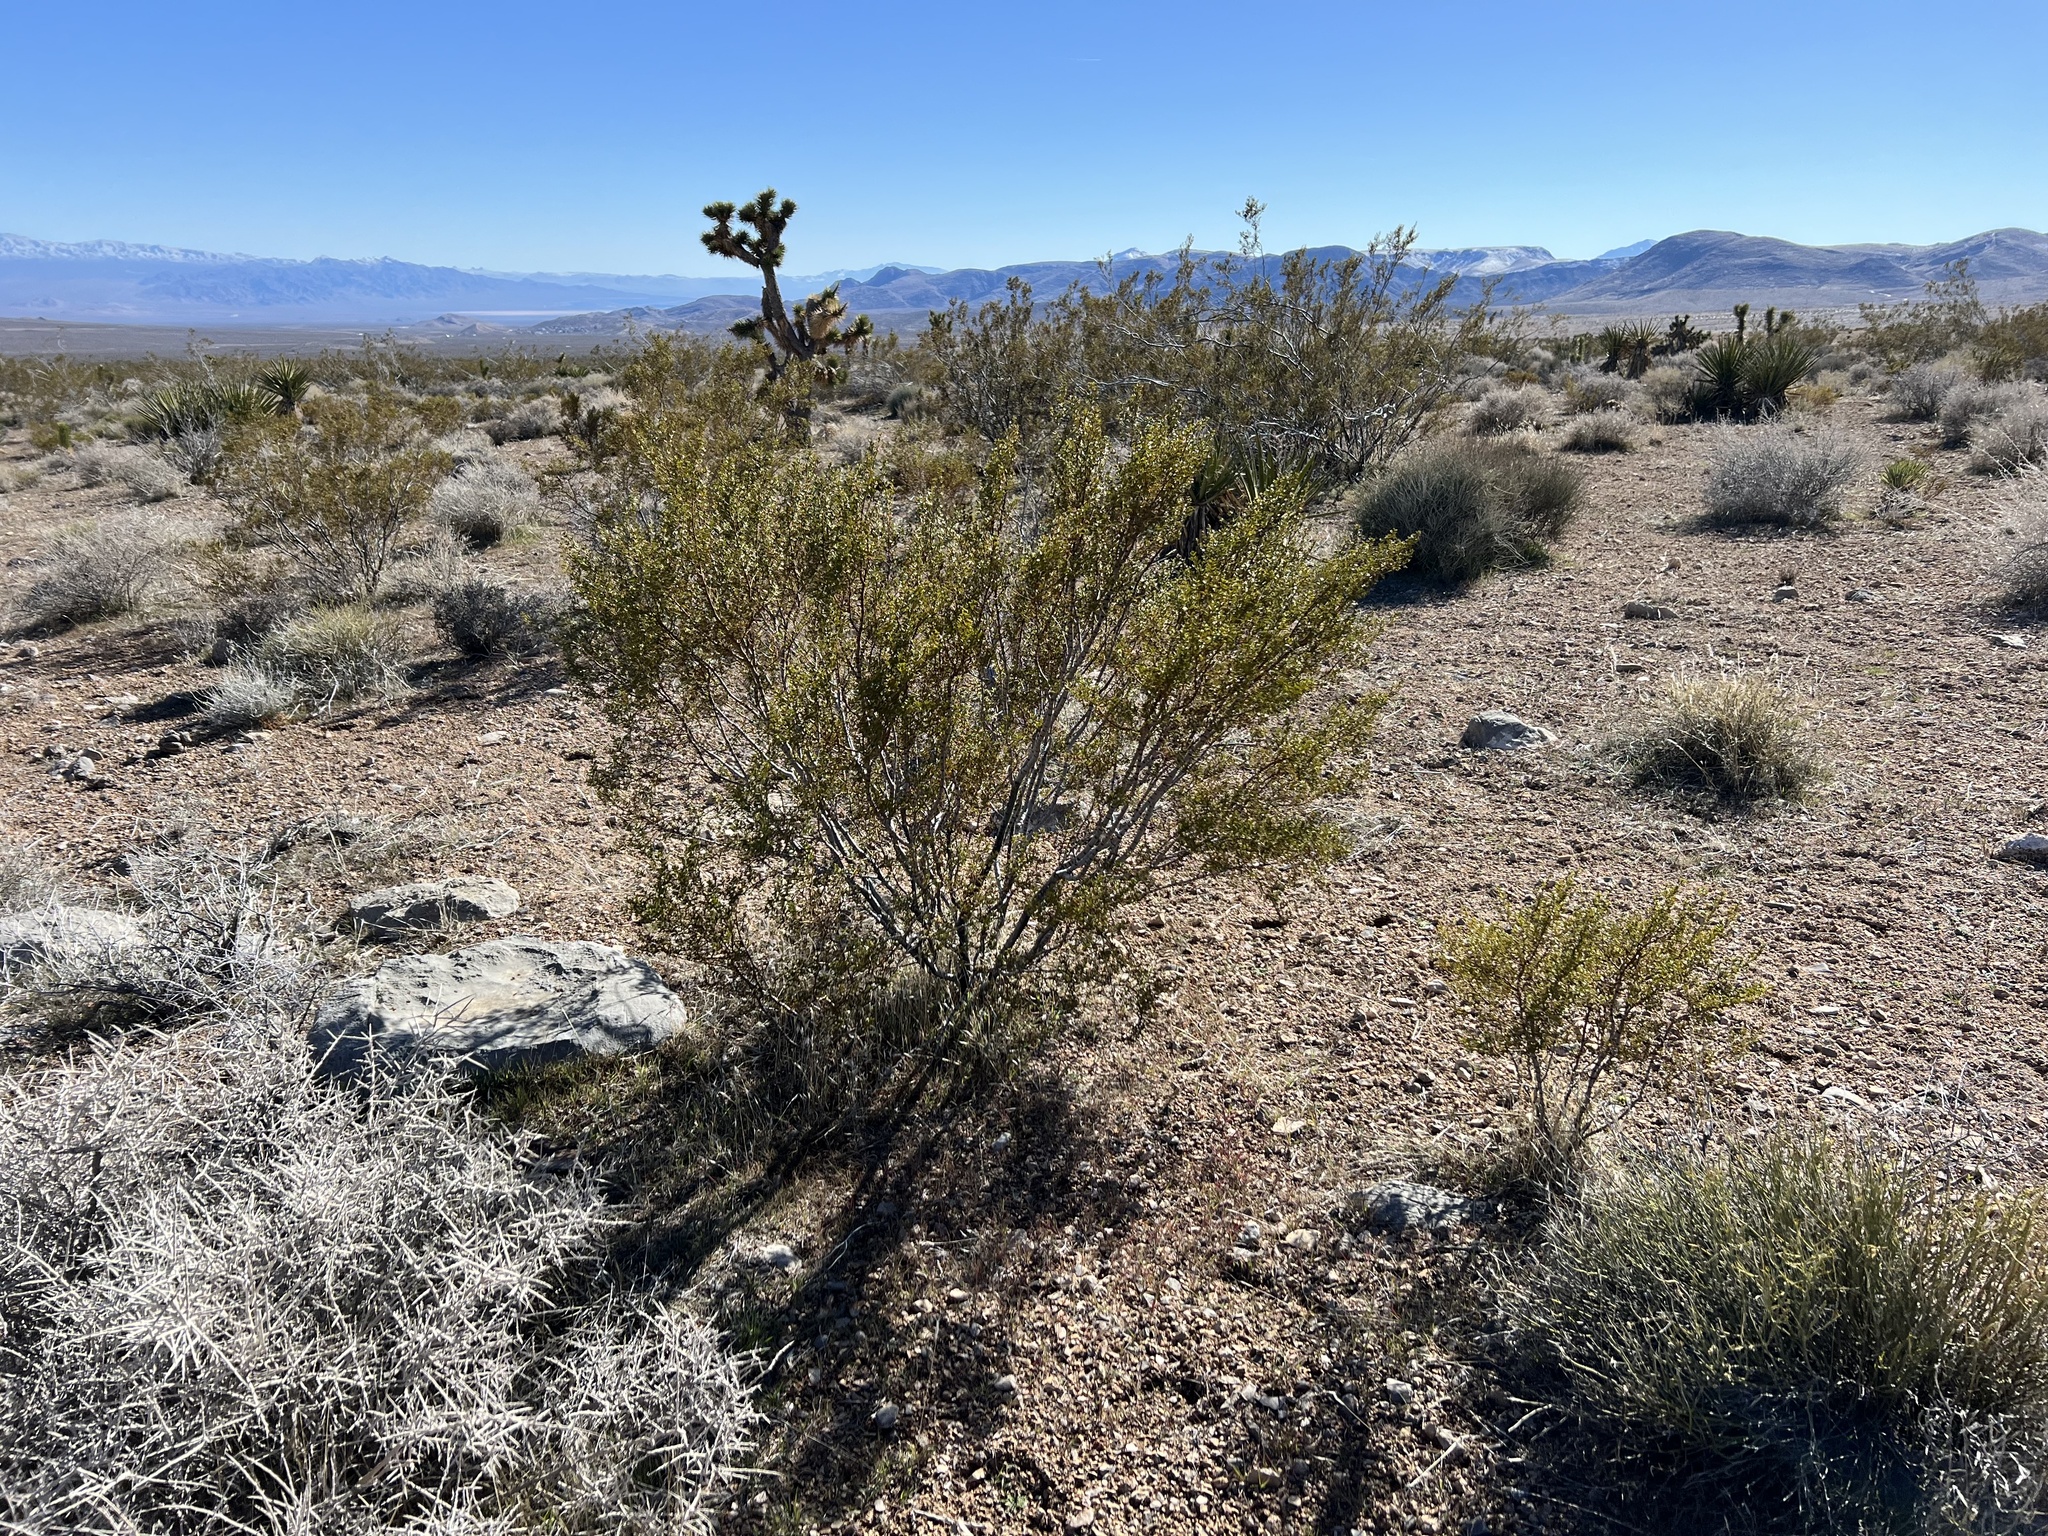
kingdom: Plantae
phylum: Tracheophyta
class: Magnoliopsida
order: Zygophyllales
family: Zygophyllaceae
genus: Larrea
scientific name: Larrea tridentata
